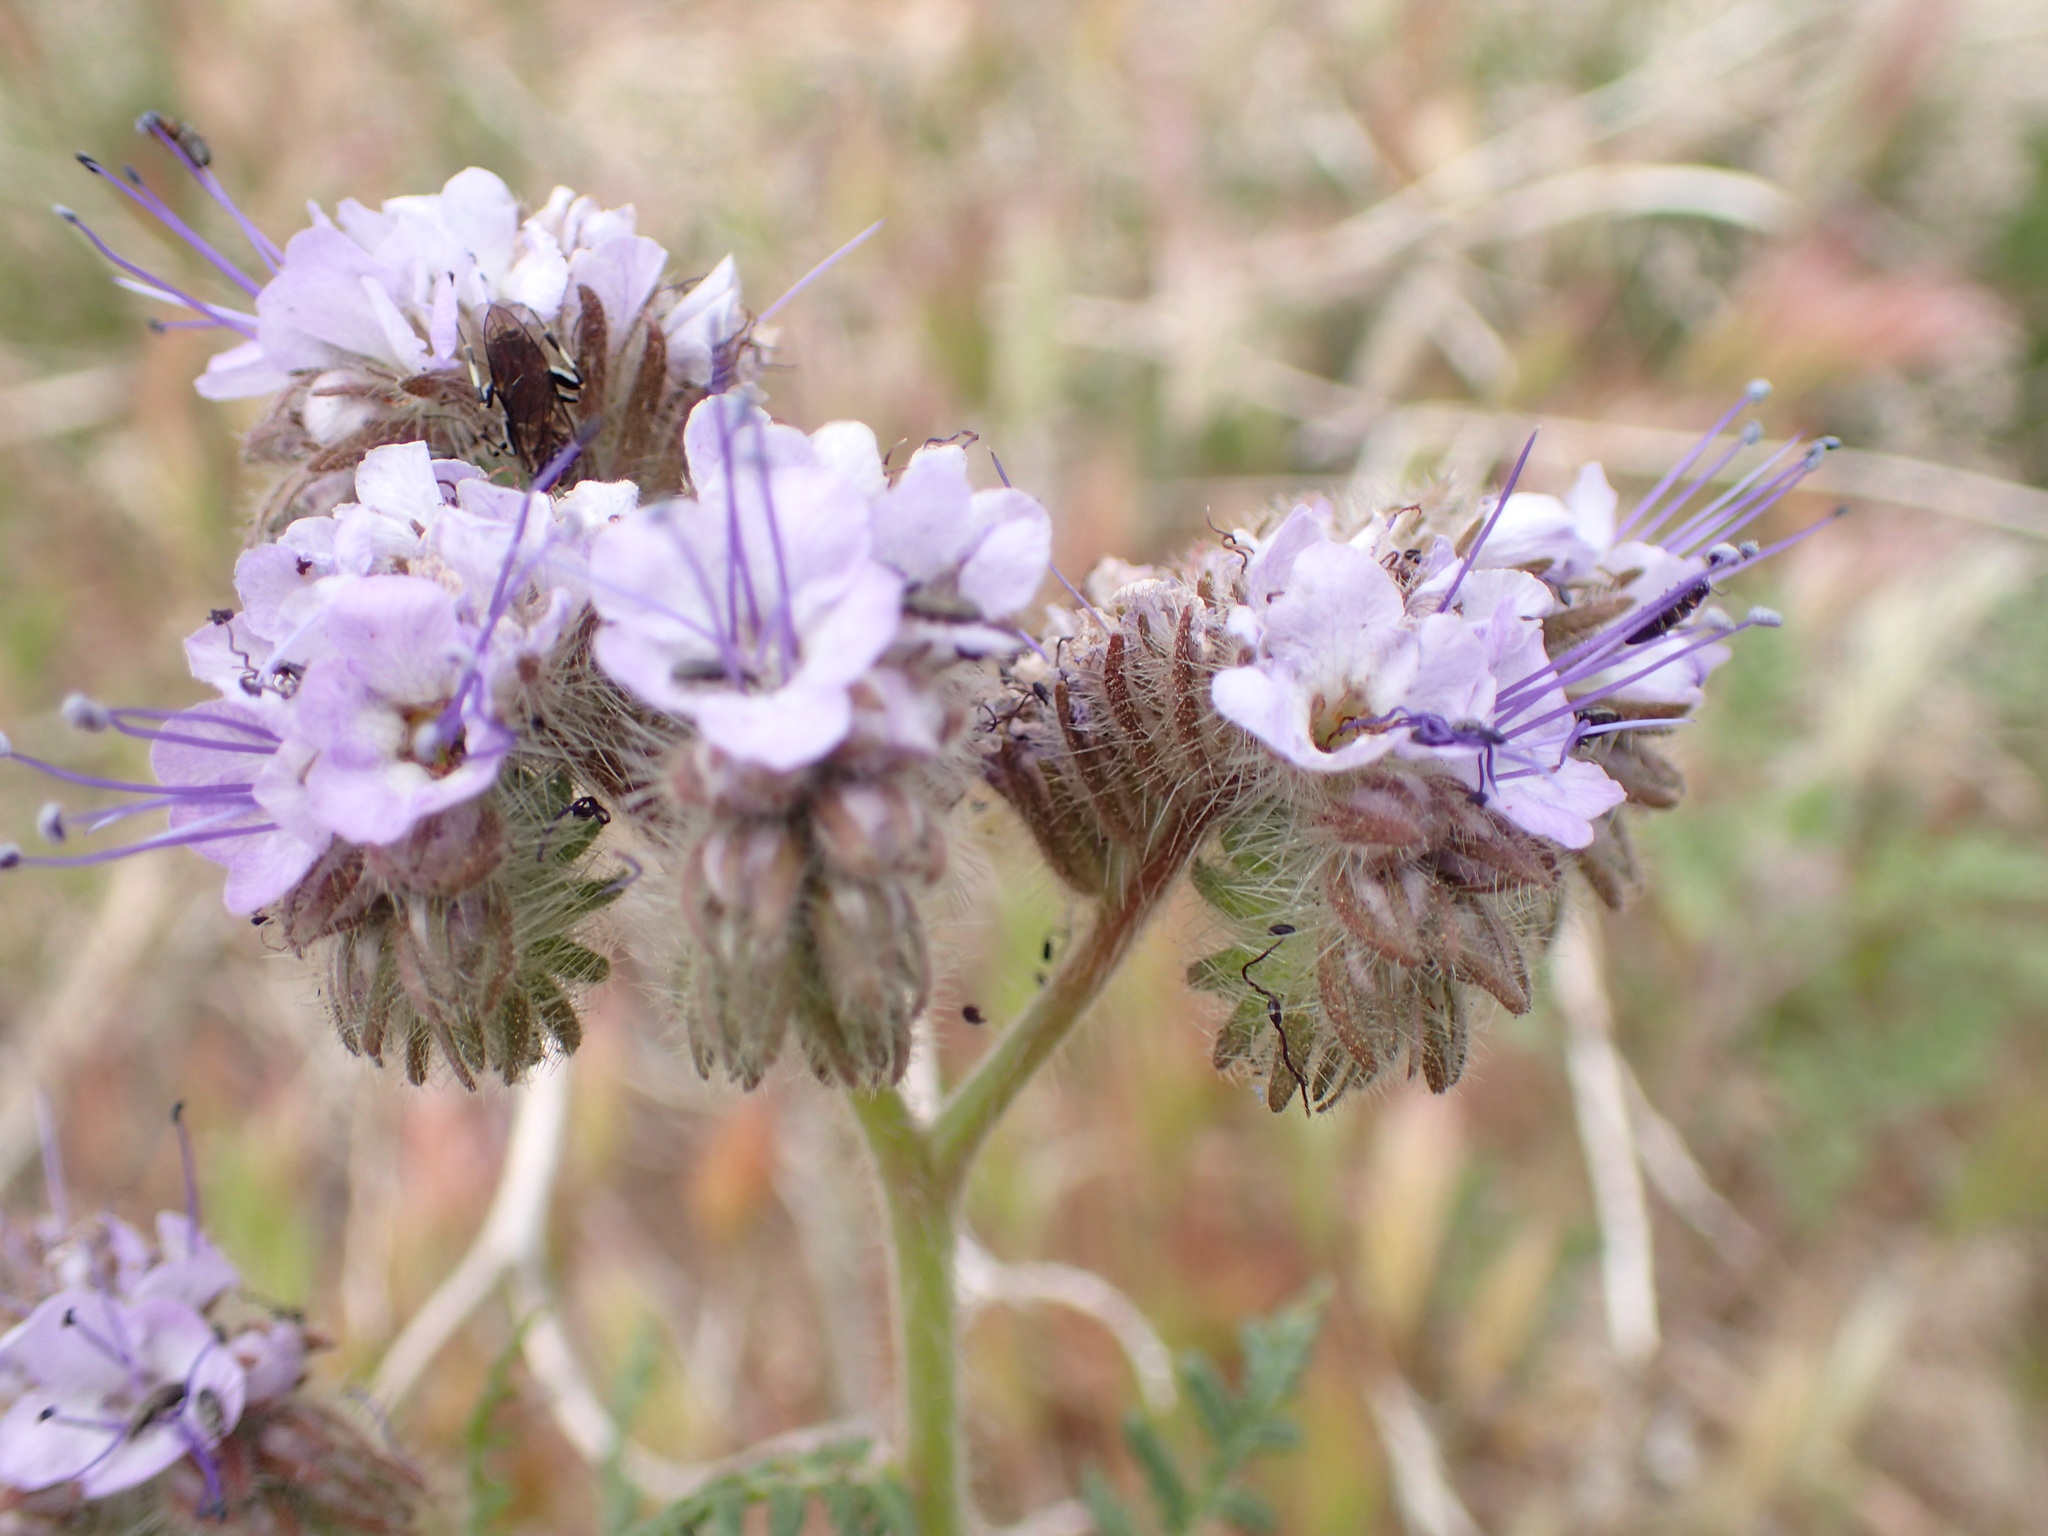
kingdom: Plantae
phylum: Tracheophyta
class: Magnoliopsida
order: Boraginales
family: Hydrophyllaceae
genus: Phacelia
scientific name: Phacelia tanacetifolia
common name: Phacelia
